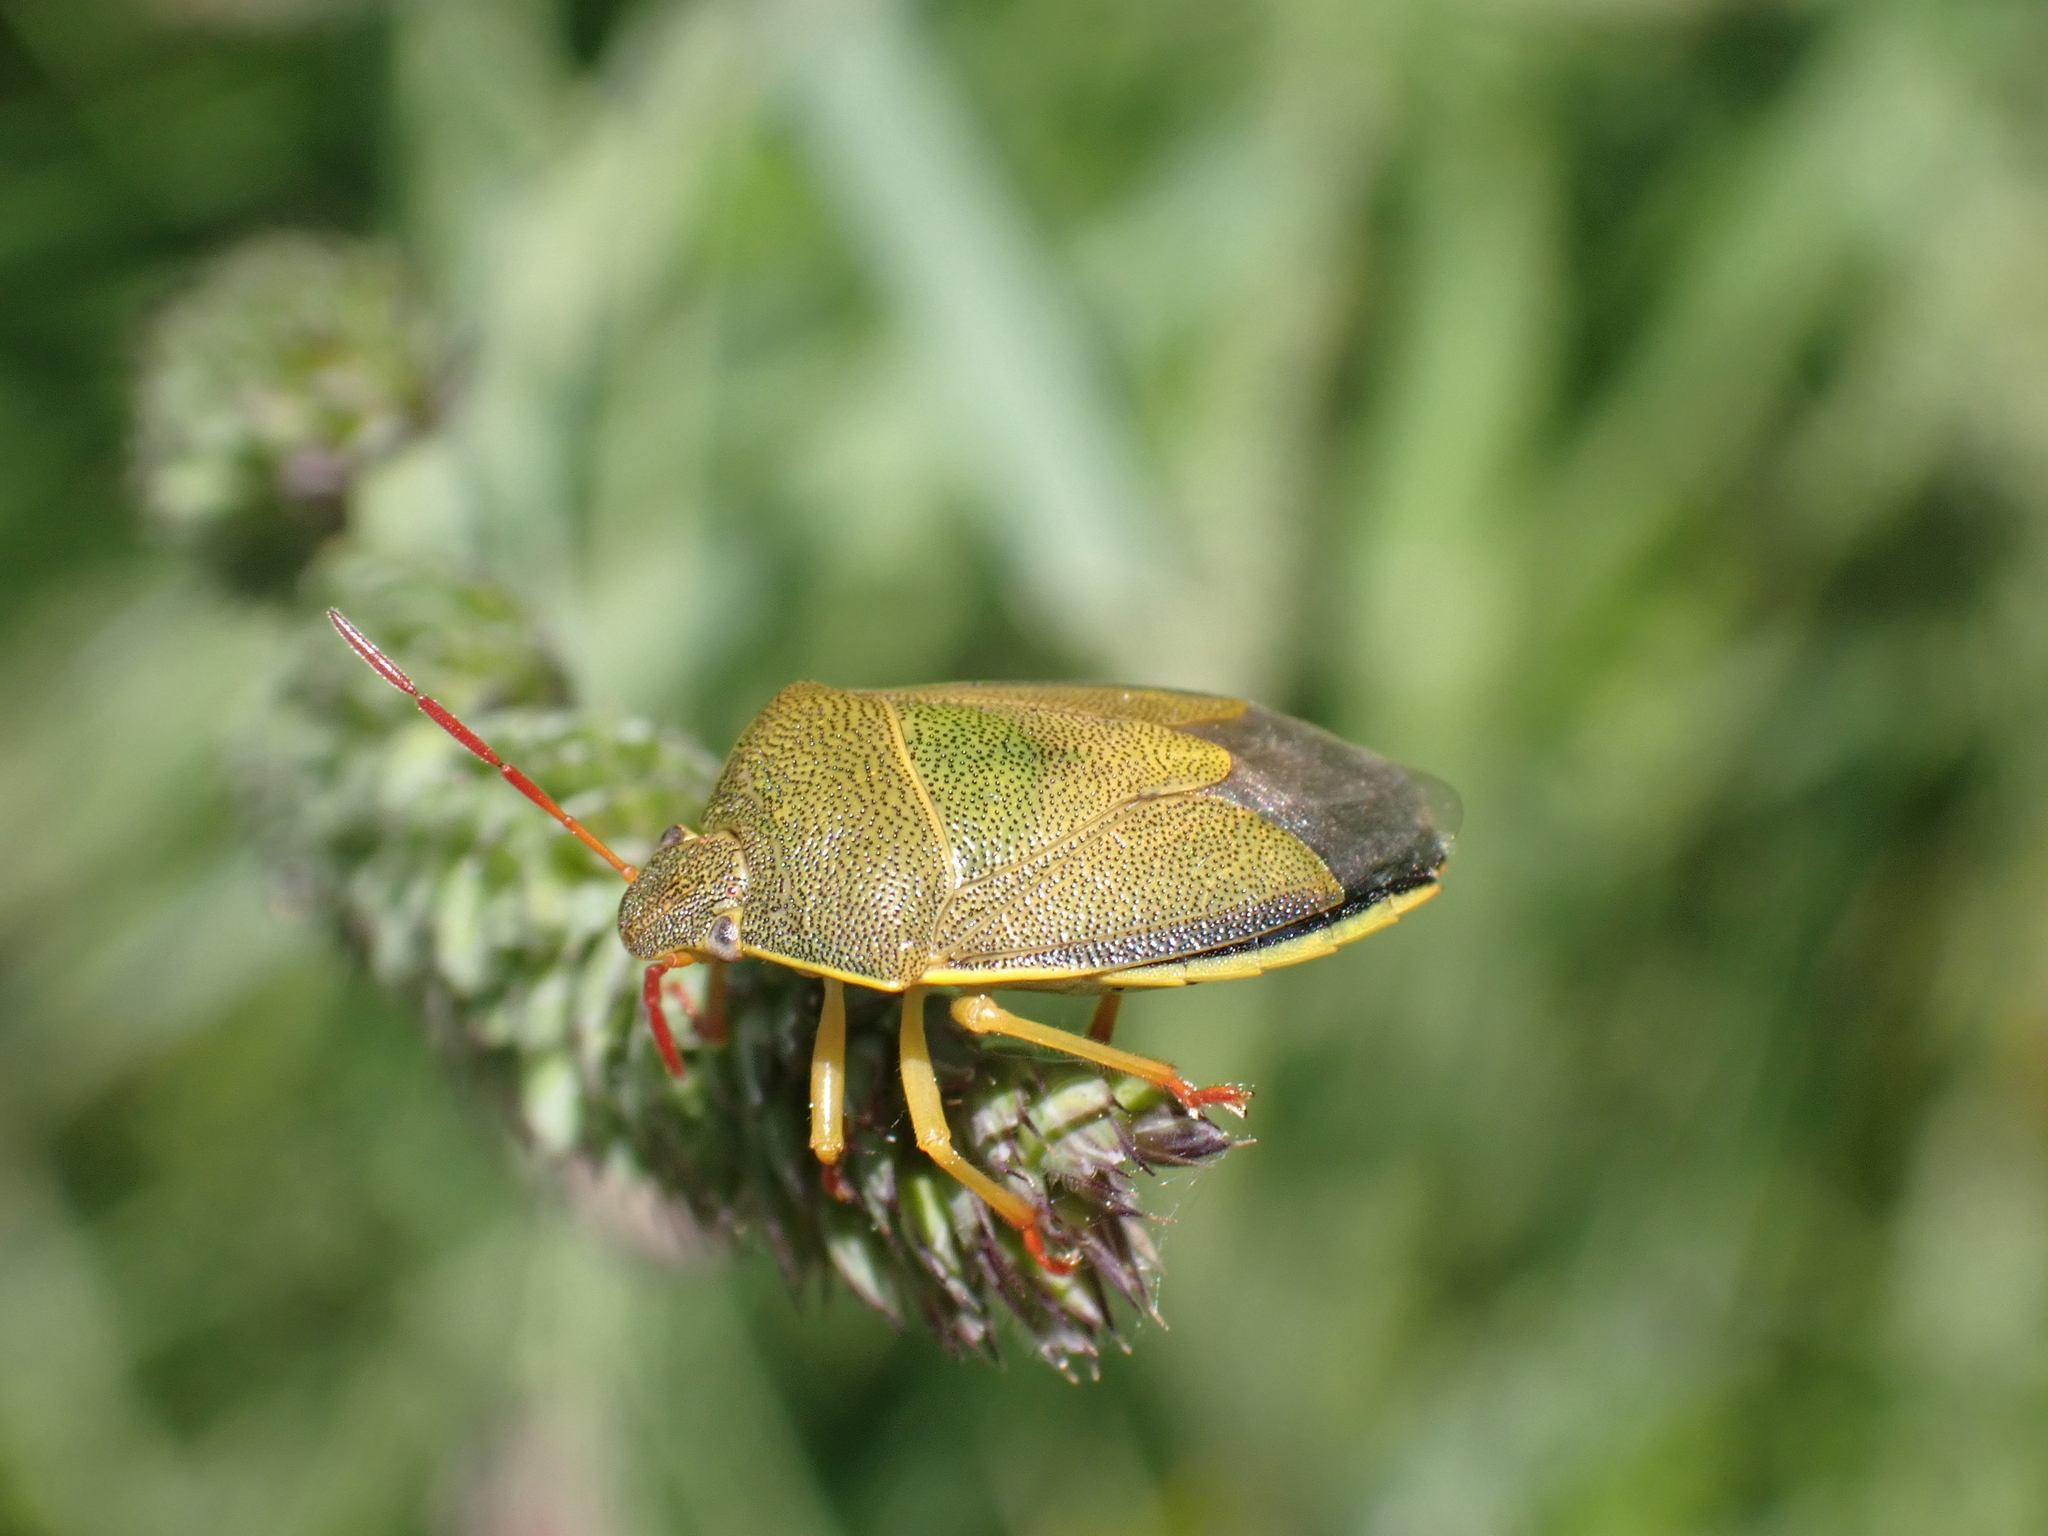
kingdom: Animalia
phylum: Arthropoda
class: Insecta
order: Hemiptera
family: Pentatomidae
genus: Piezodorus
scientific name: Piezodorus lituratus
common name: Stink bug
